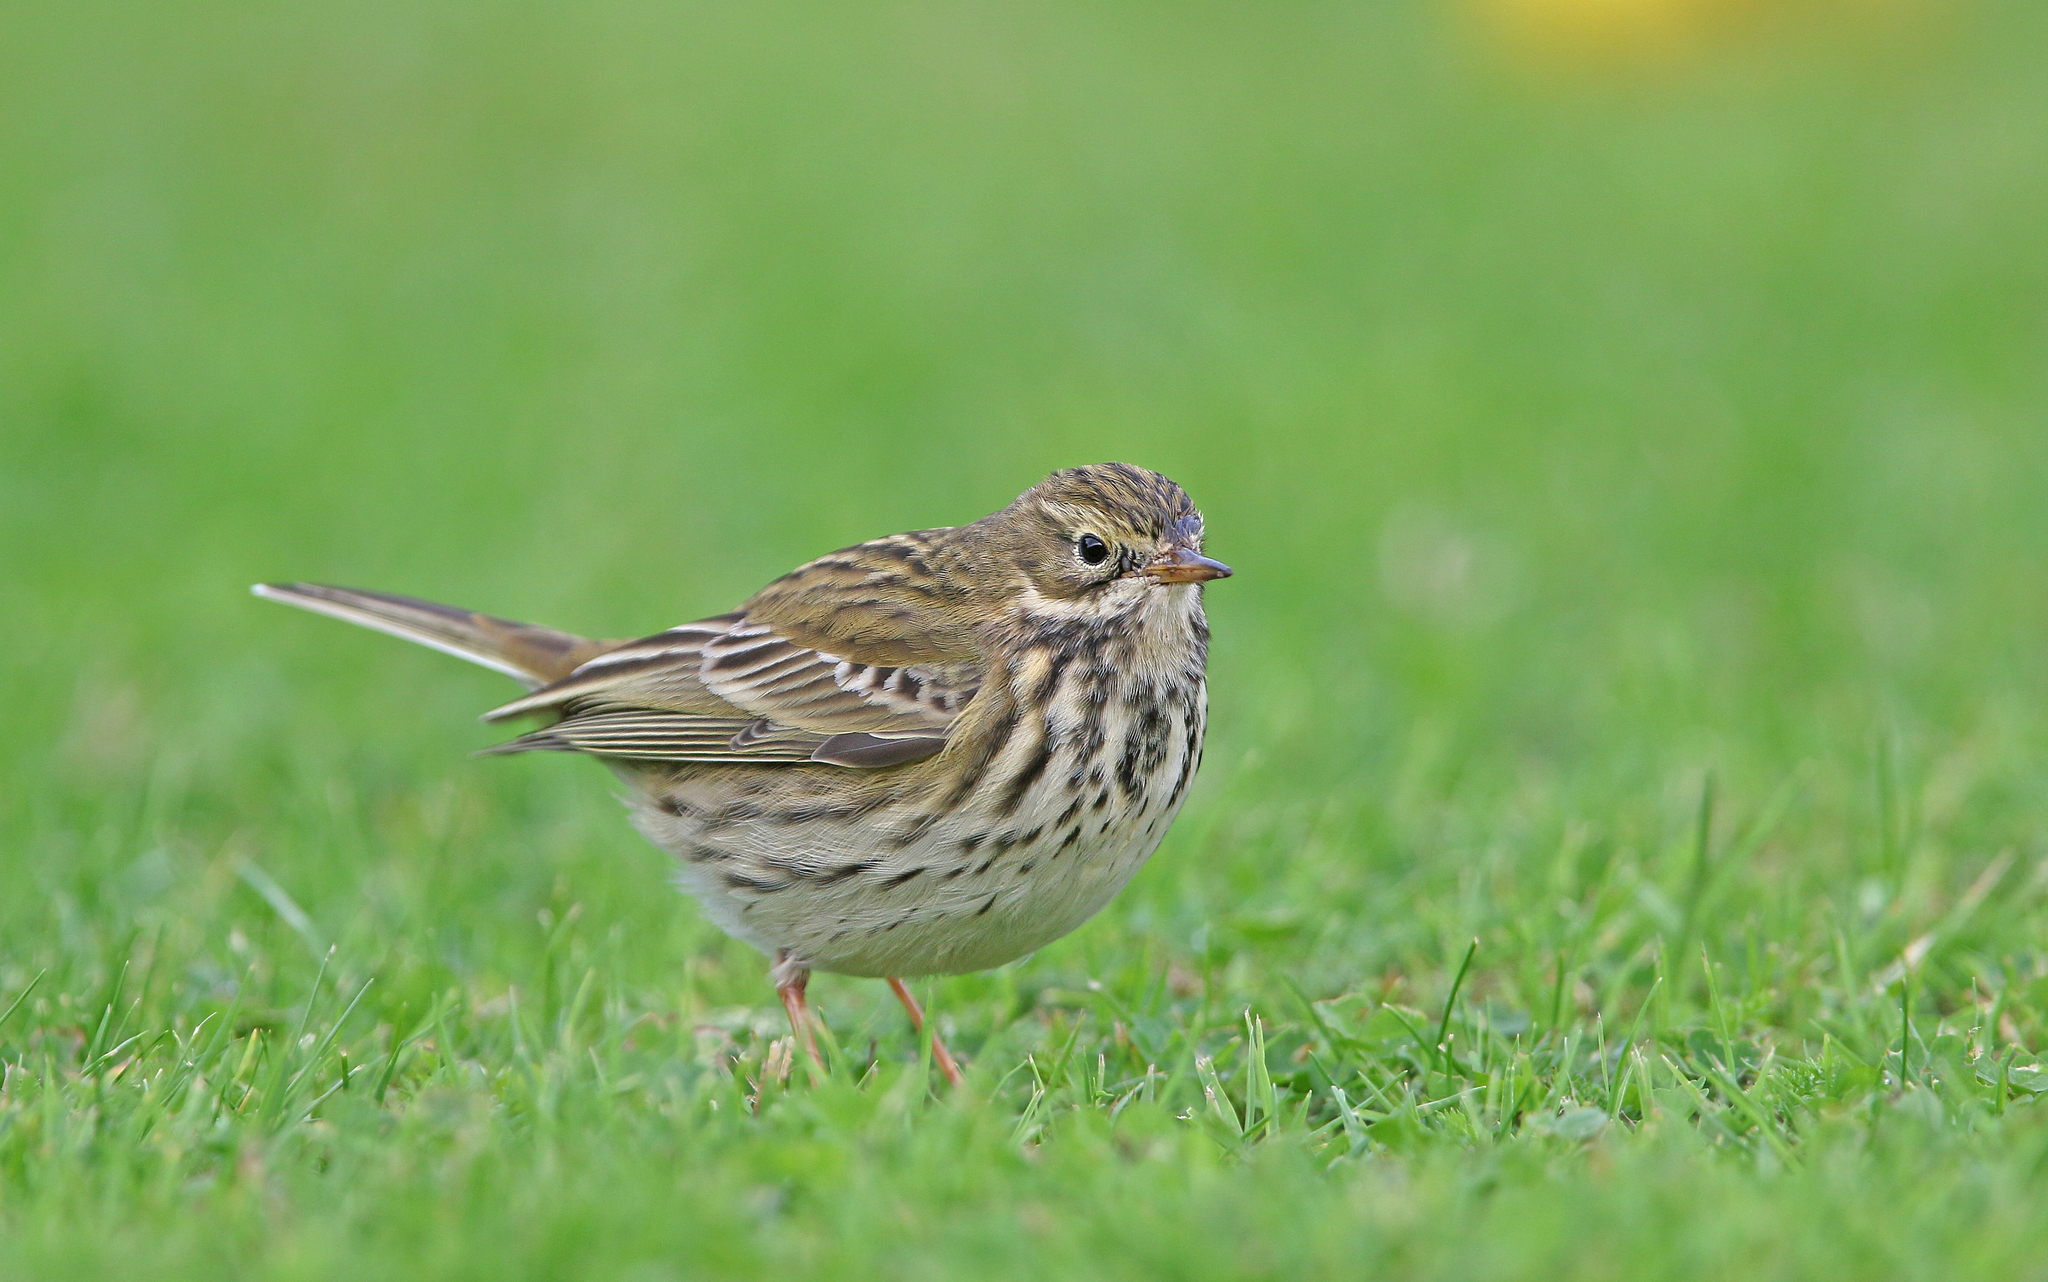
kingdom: Animalia
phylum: Chordata
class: Aves
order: Passeriformes
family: Motacillidae
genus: Anthus
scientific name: Anthus pratensis
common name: Meadow pipit
